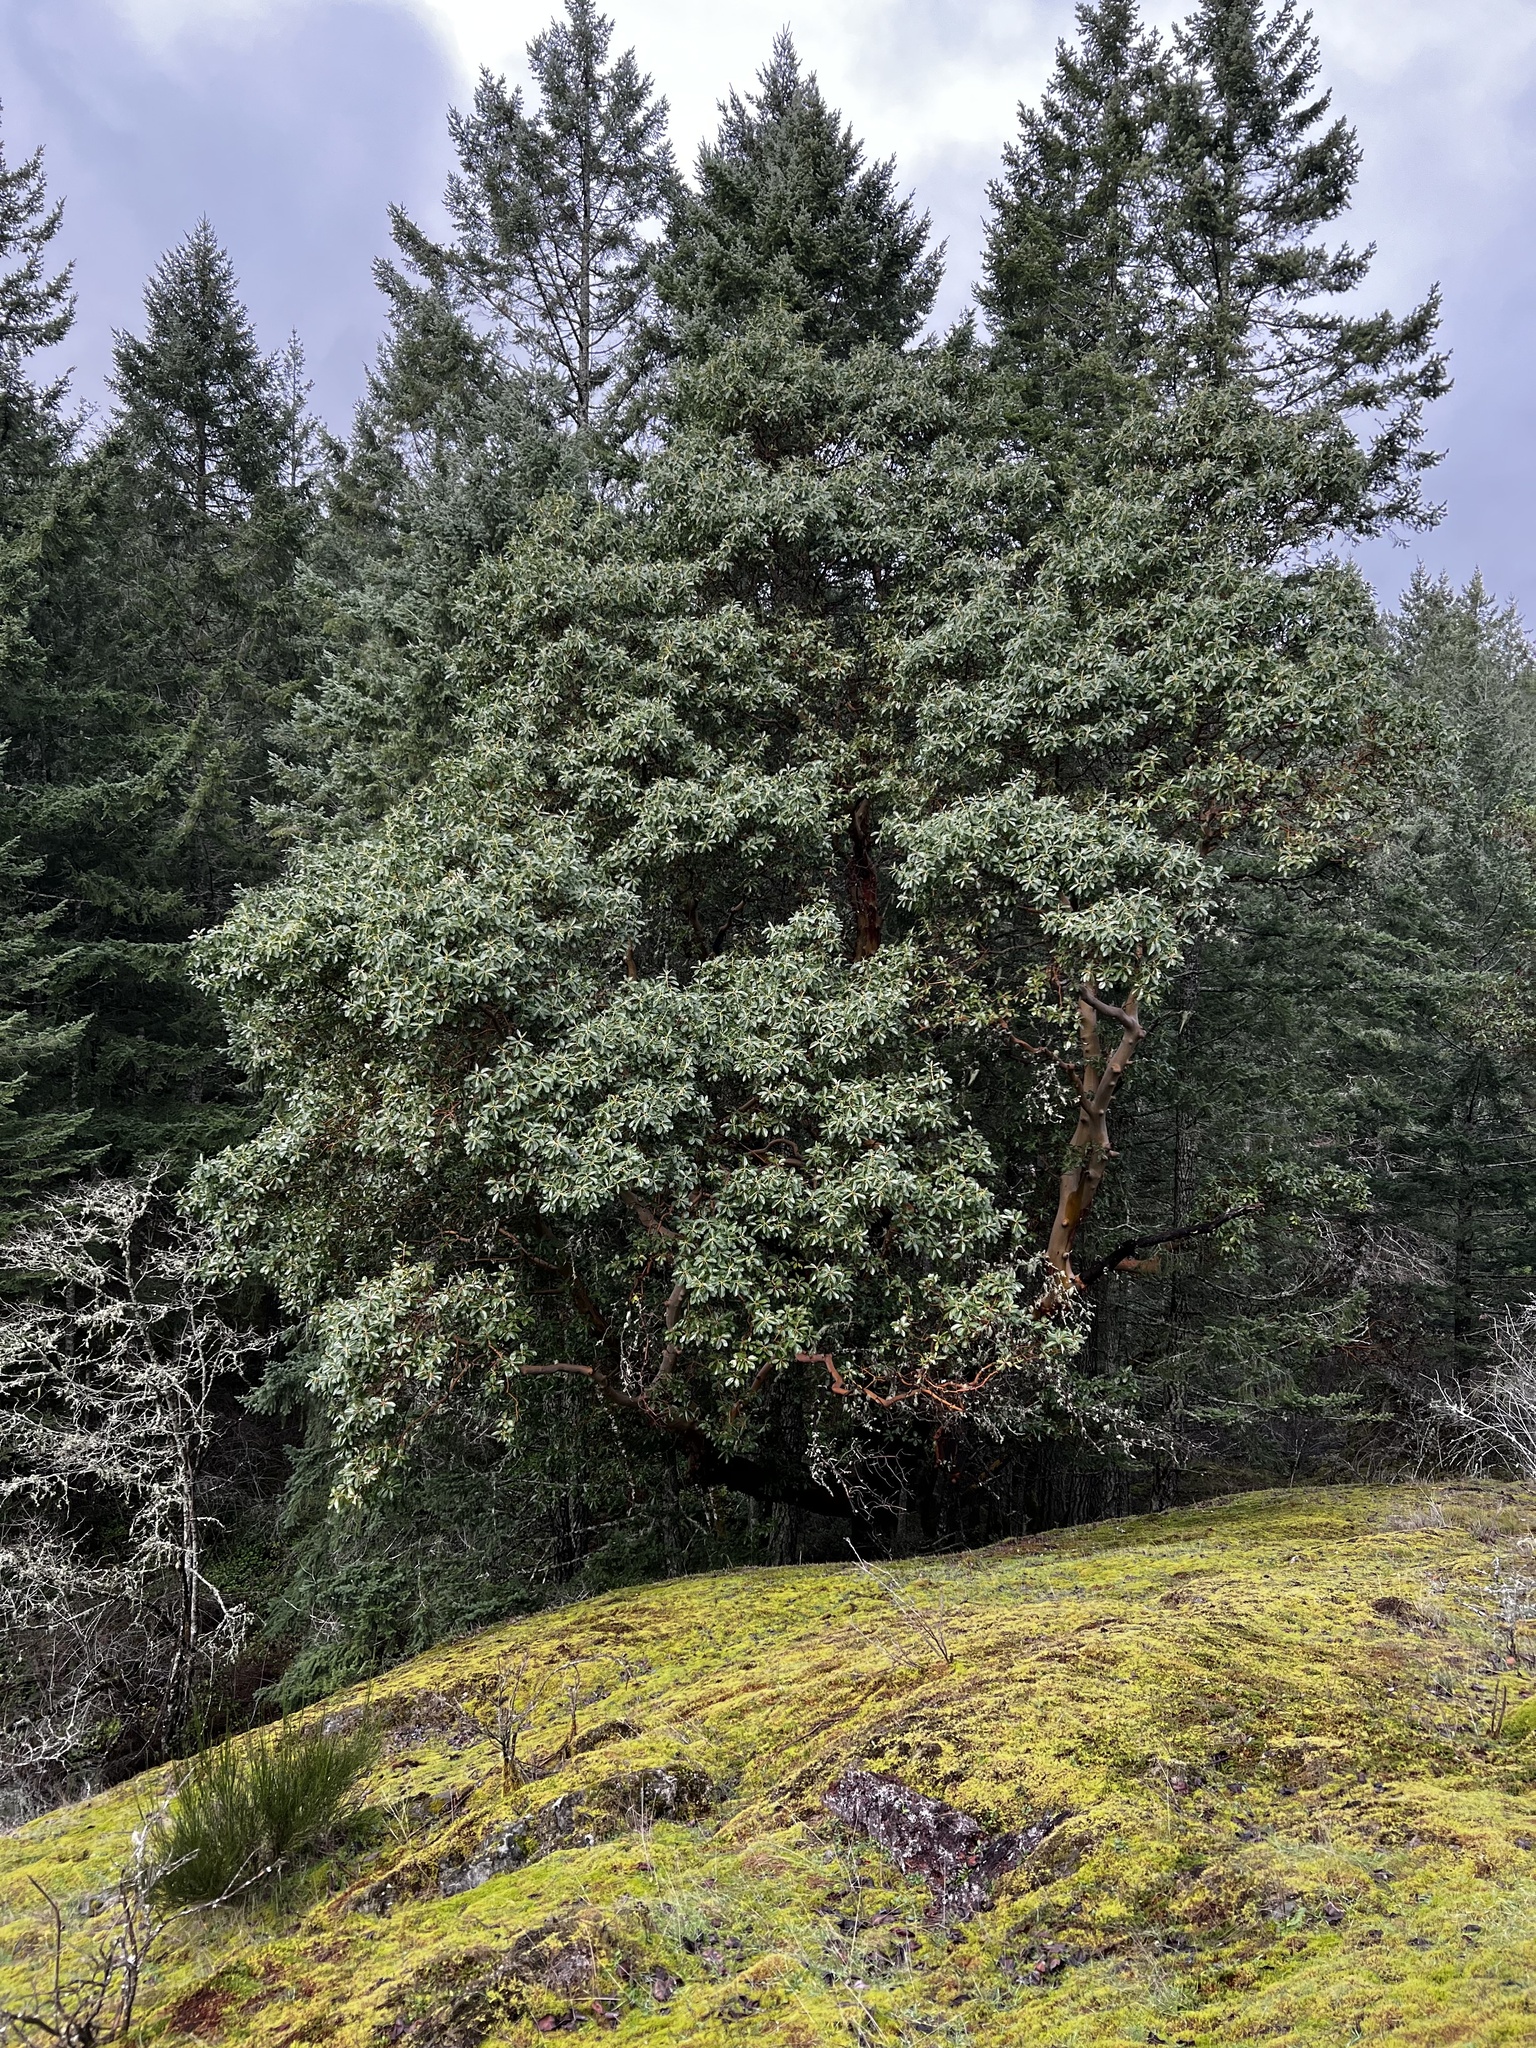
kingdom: Plantae
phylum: Tracheophyta
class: Magnoliopsida
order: Ericales
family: Ericaceae
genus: Arbutus
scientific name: Arbutus menziesii
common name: Pacific madrone
